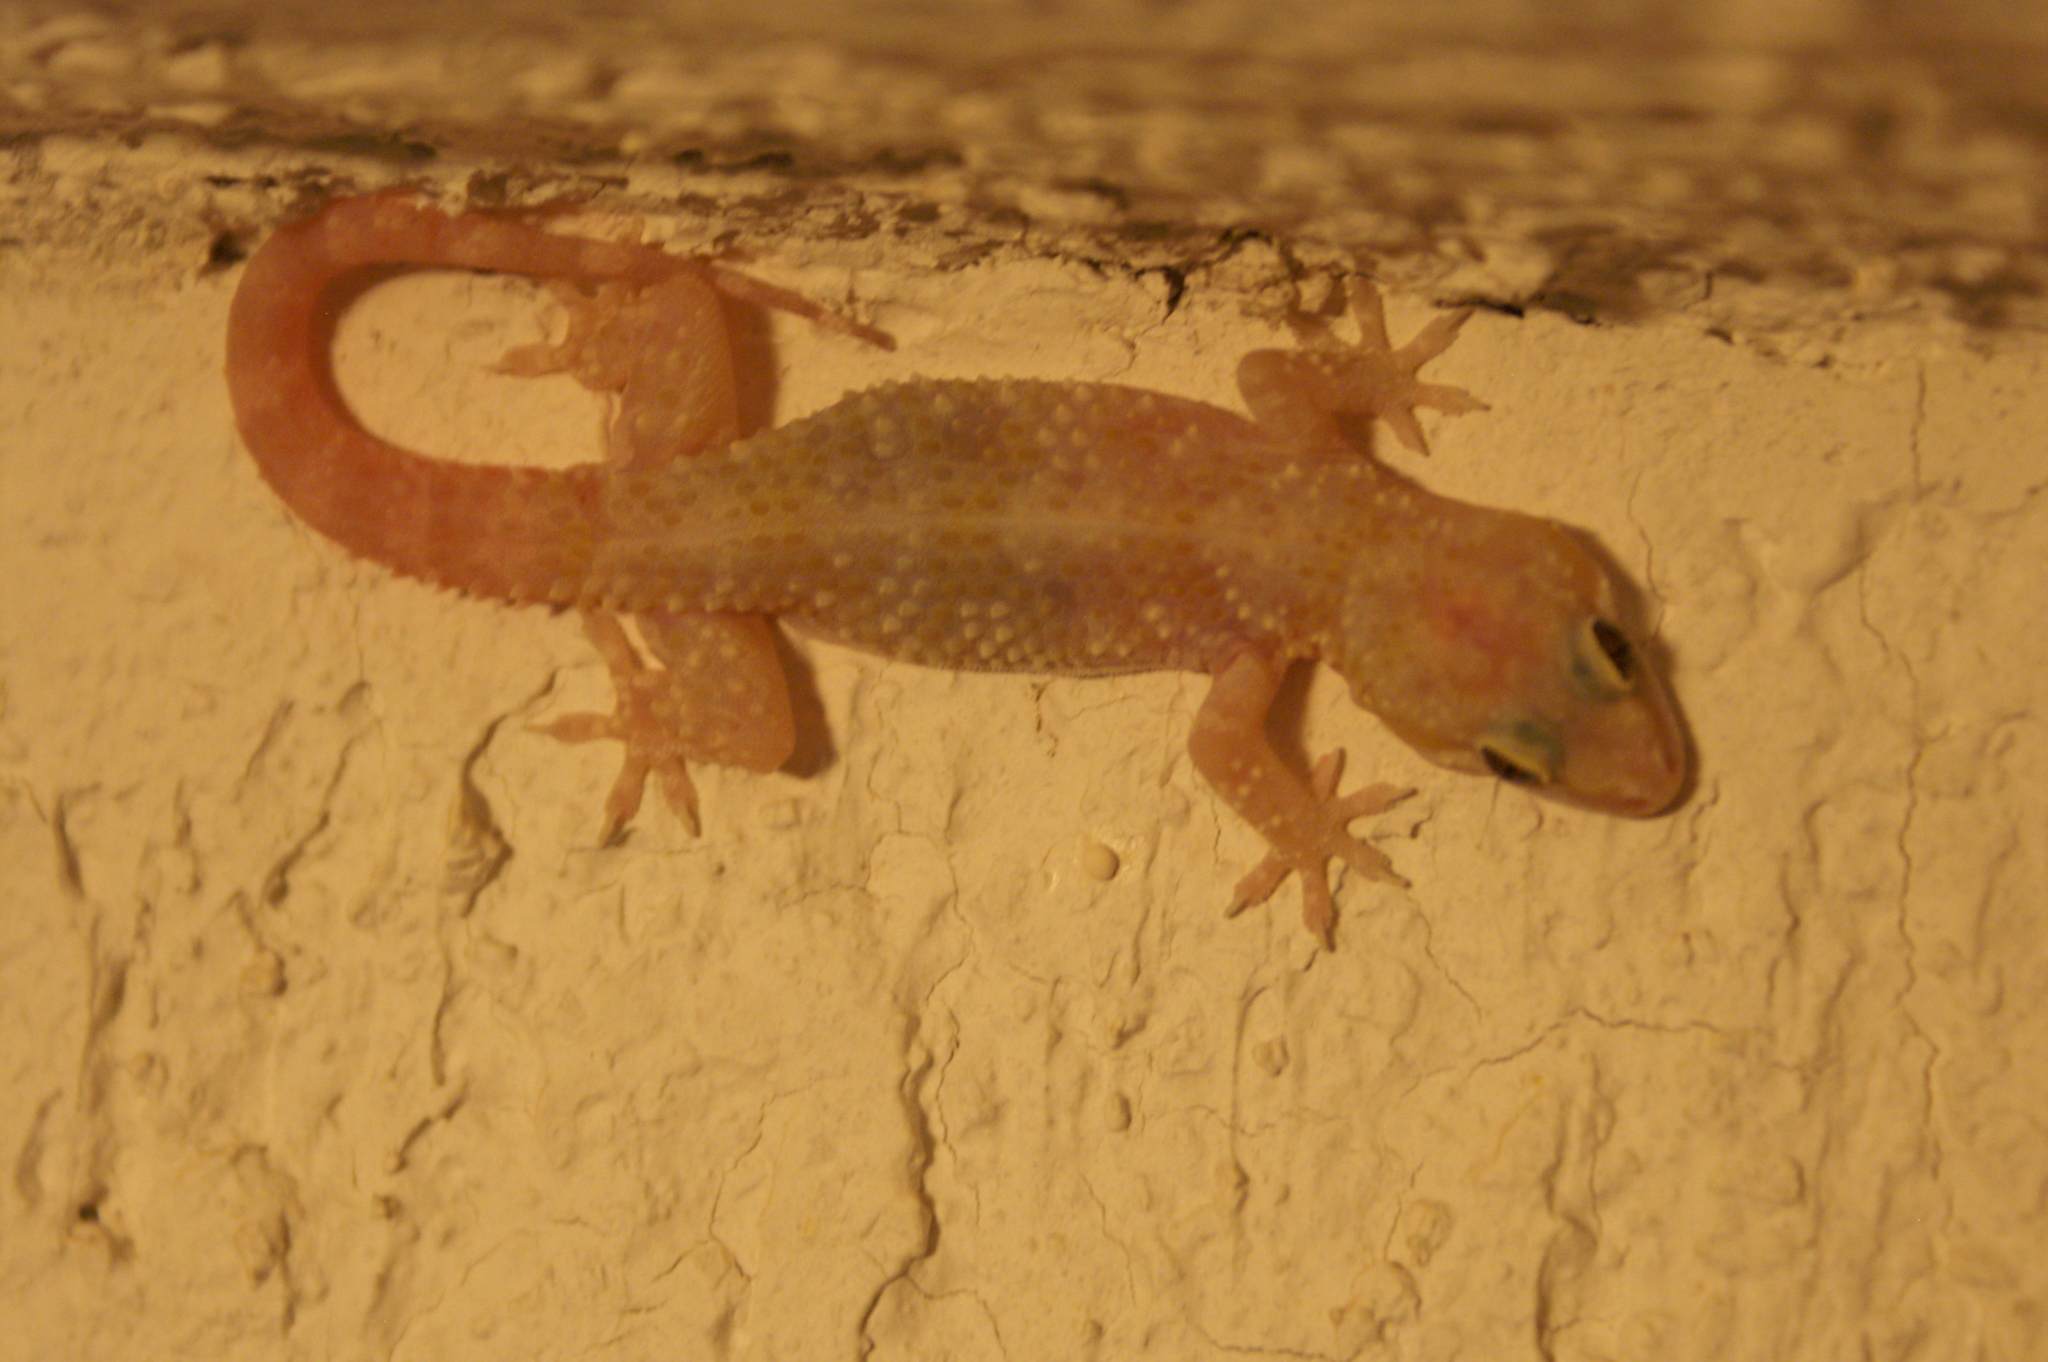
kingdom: Animalia
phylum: Chordata
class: Squamata
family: Gekkonidae
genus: Hemidactylus
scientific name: Hemidactylus turcicus
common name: Turkish gecko
